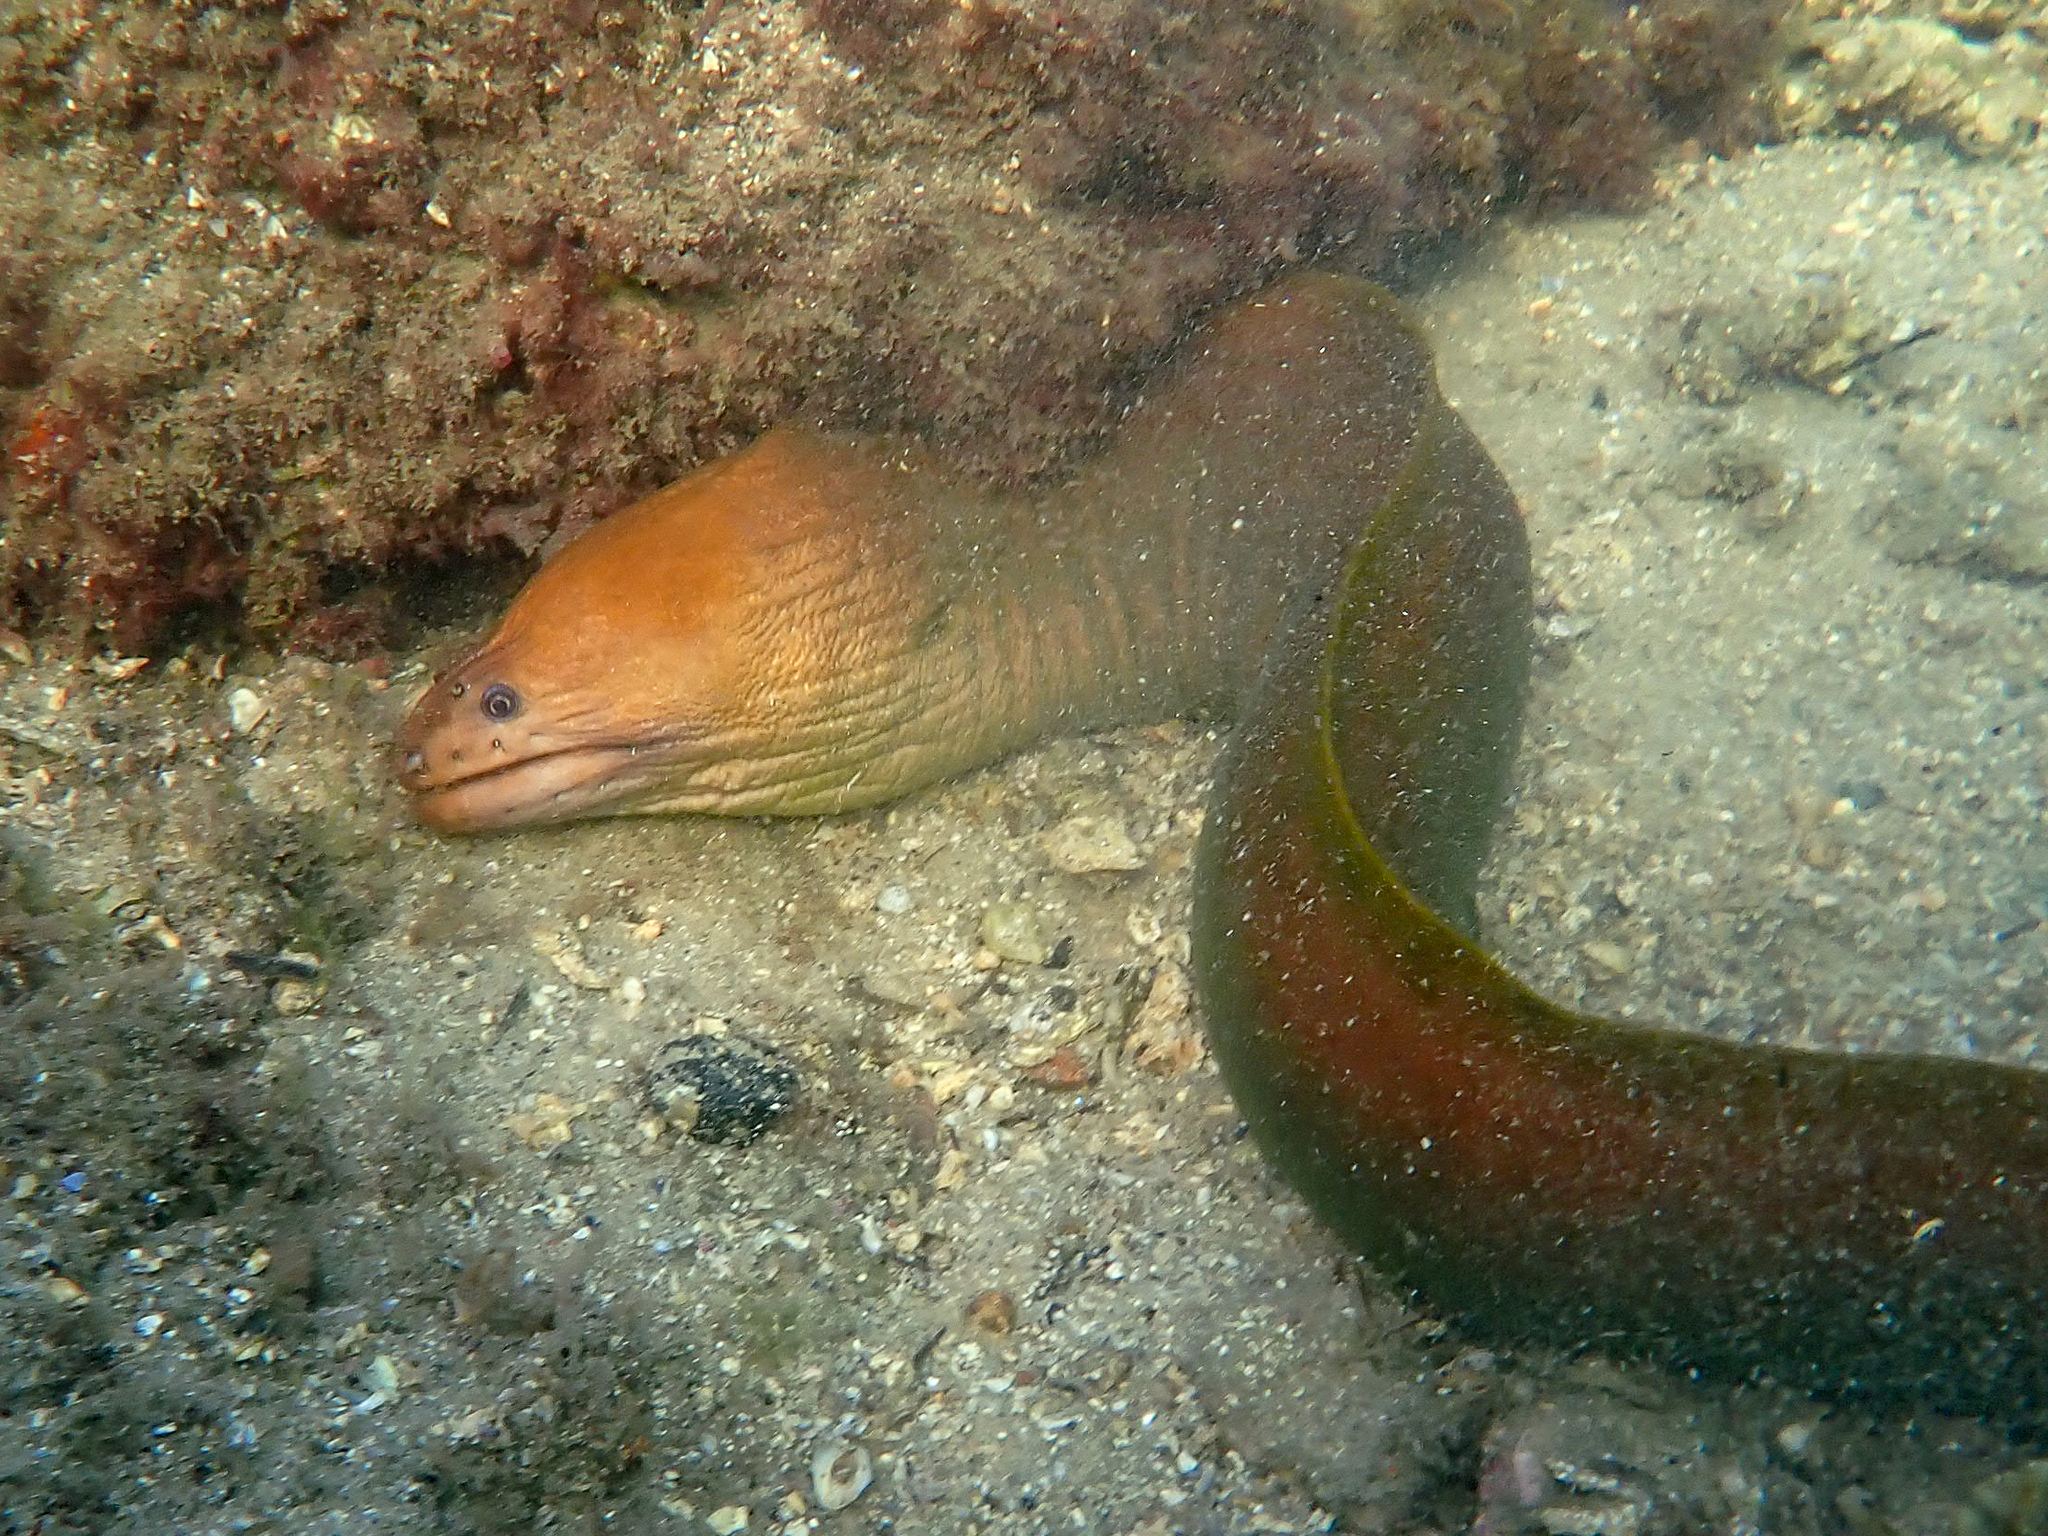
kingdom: Animalia
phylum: Chordata
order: Anguilliformes
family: Muraenidae
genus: Gymnothorax
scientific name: Gymnothorax prasinus
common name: Yellow moray
